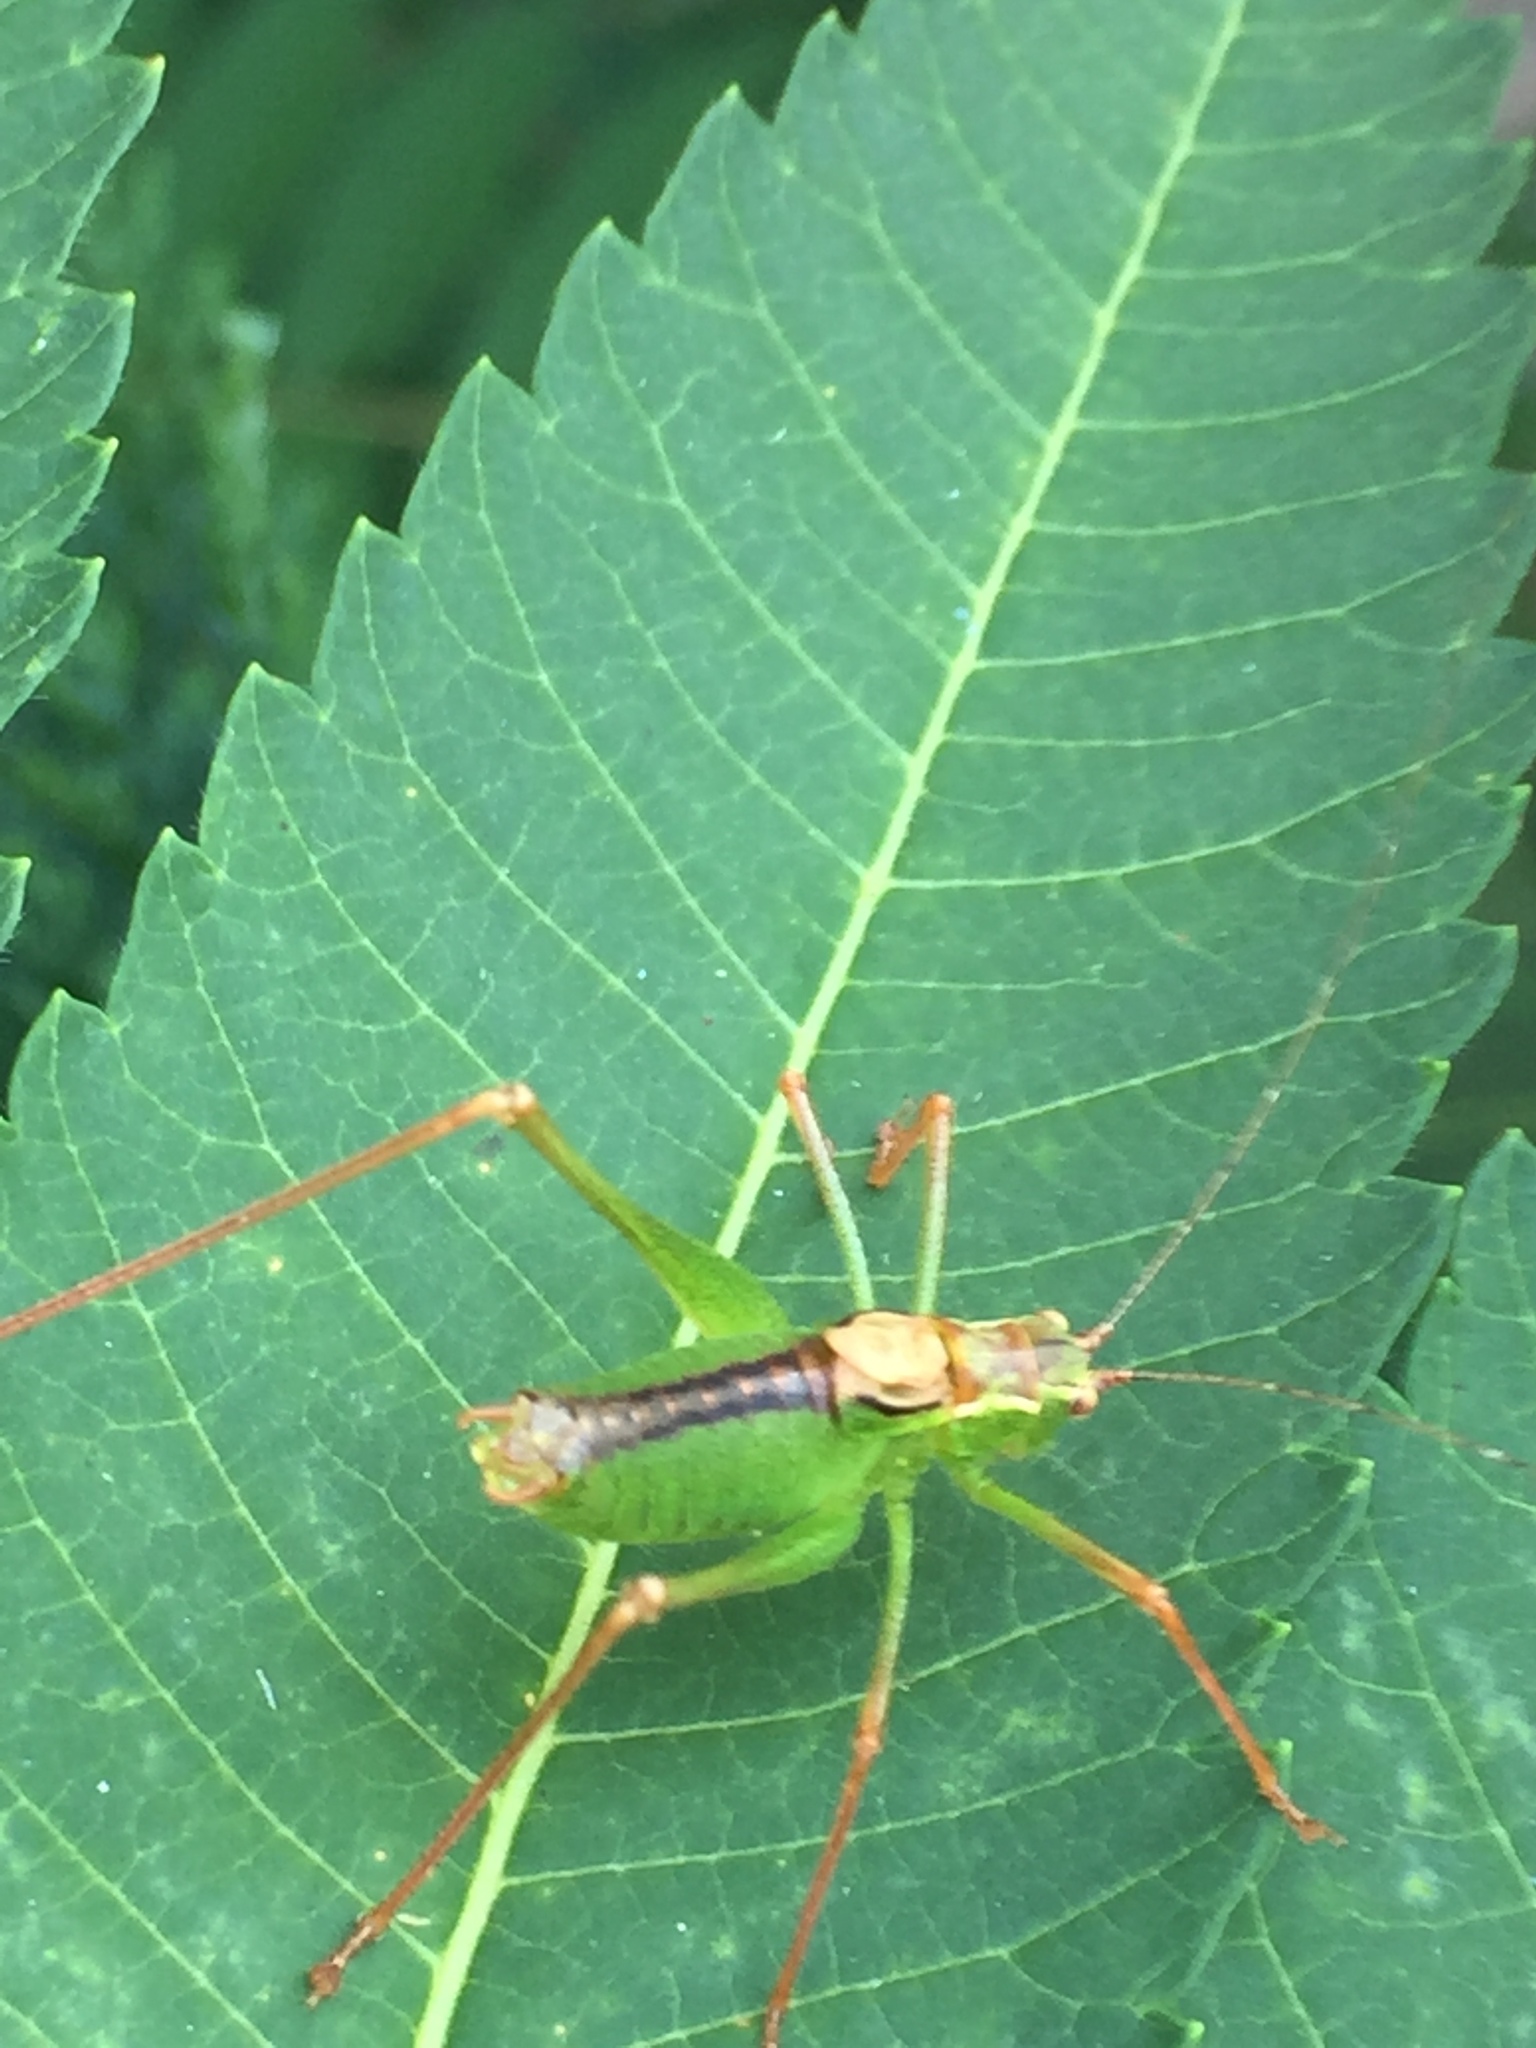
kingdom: Animalia
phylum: Arthropoda
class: Insecta
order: Orthoptera
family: Tettigoniidae
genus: Leptophyes
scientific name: Leptophyes punctatissima
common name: Speckled bush-cricket
